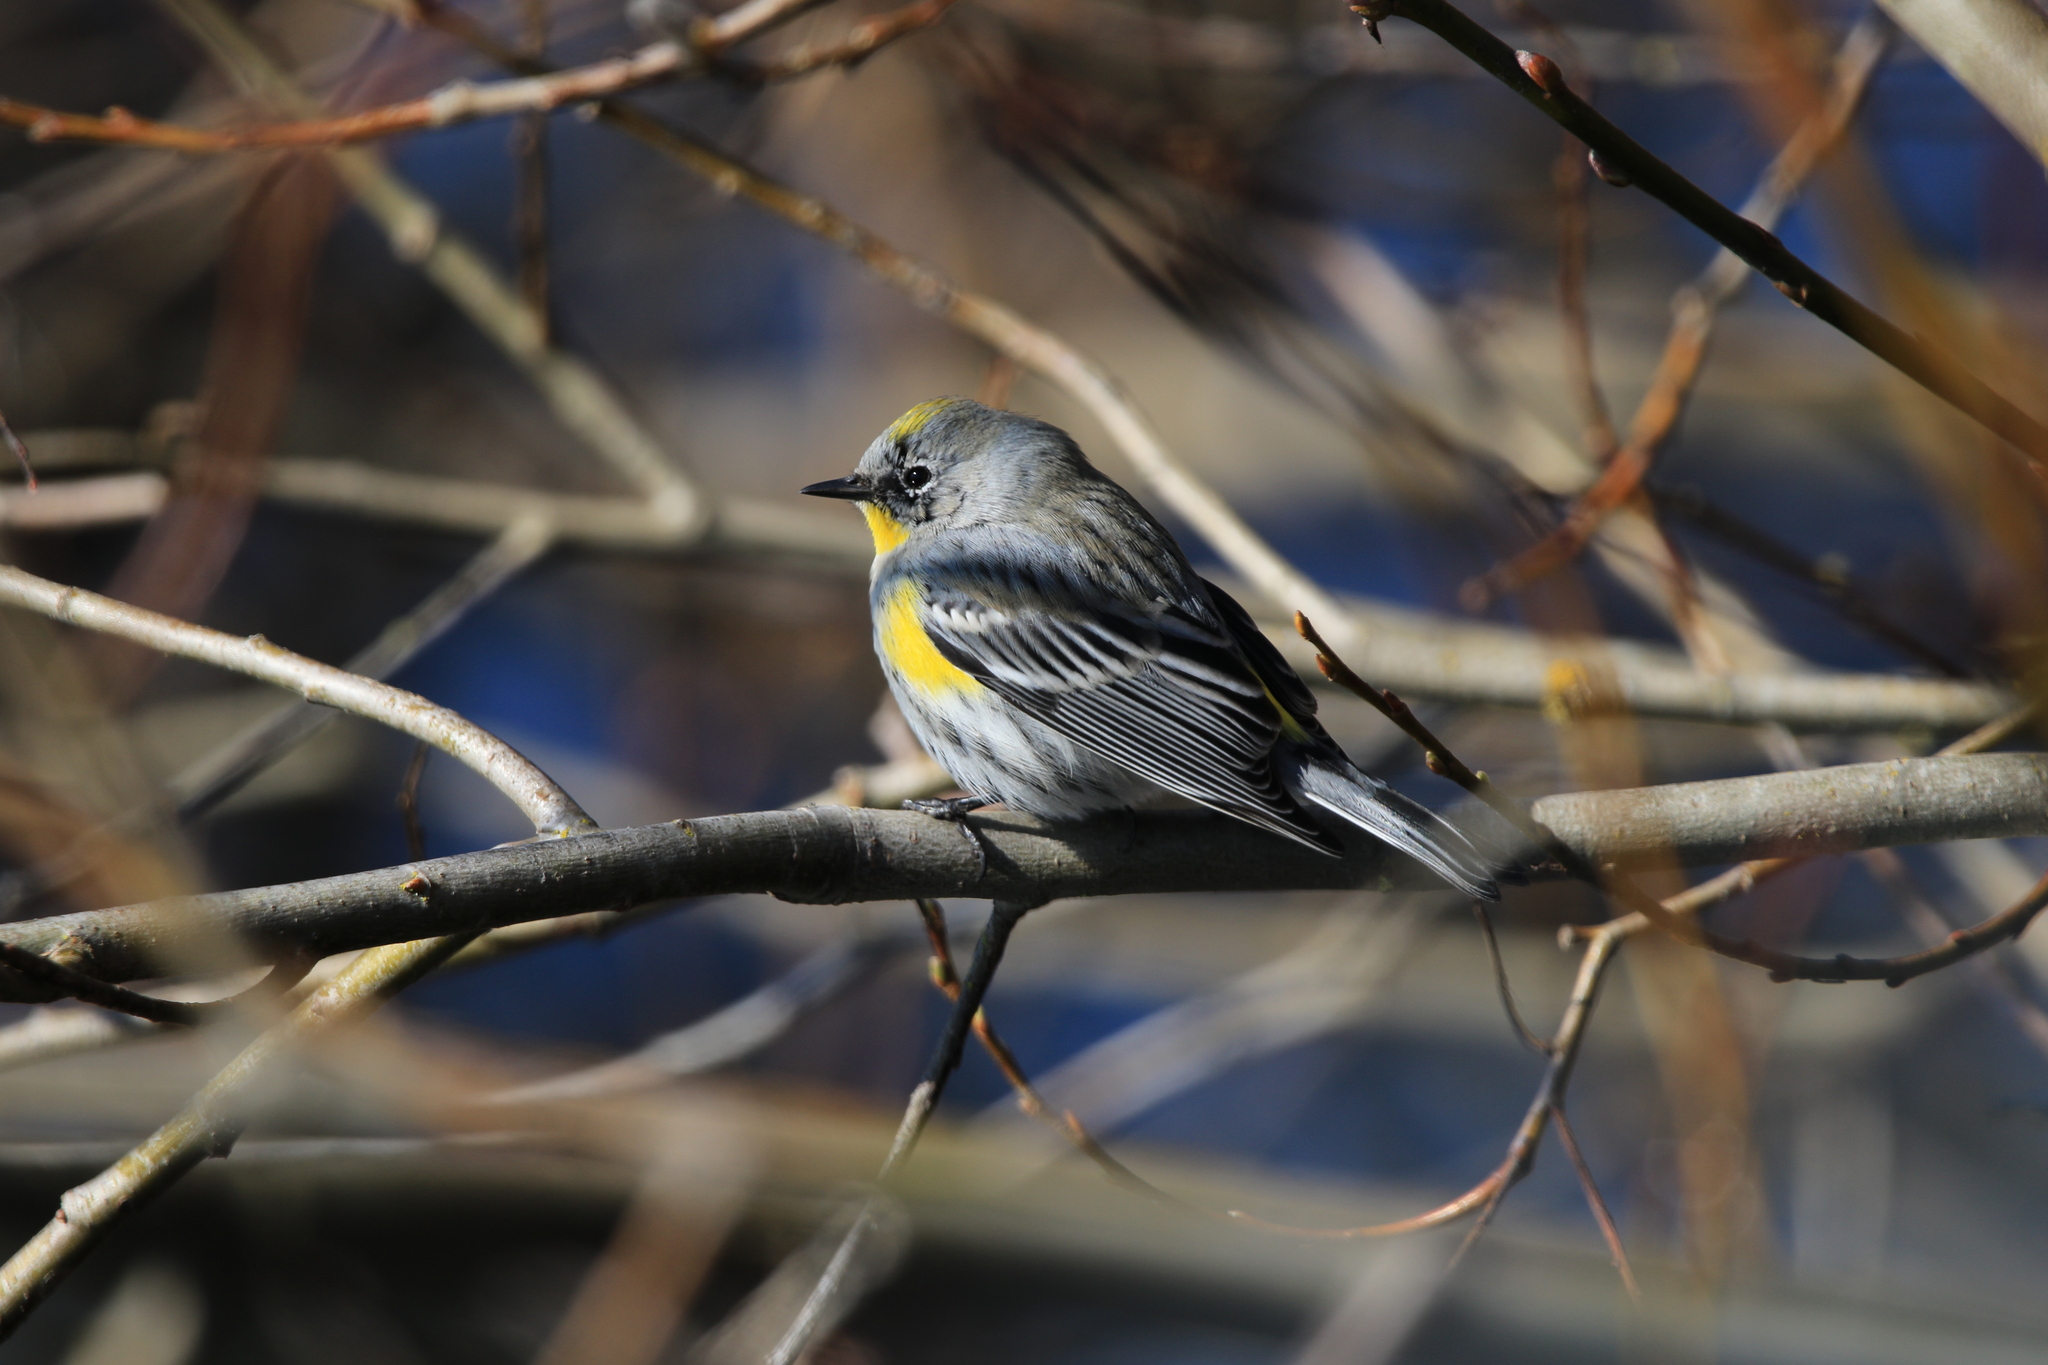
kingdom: Animalia
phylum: Chordata
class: Aves
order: Passeriformes
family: Parulidae
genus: Setophaga
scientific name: Setophaga coronata
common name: Myrtle warbler
